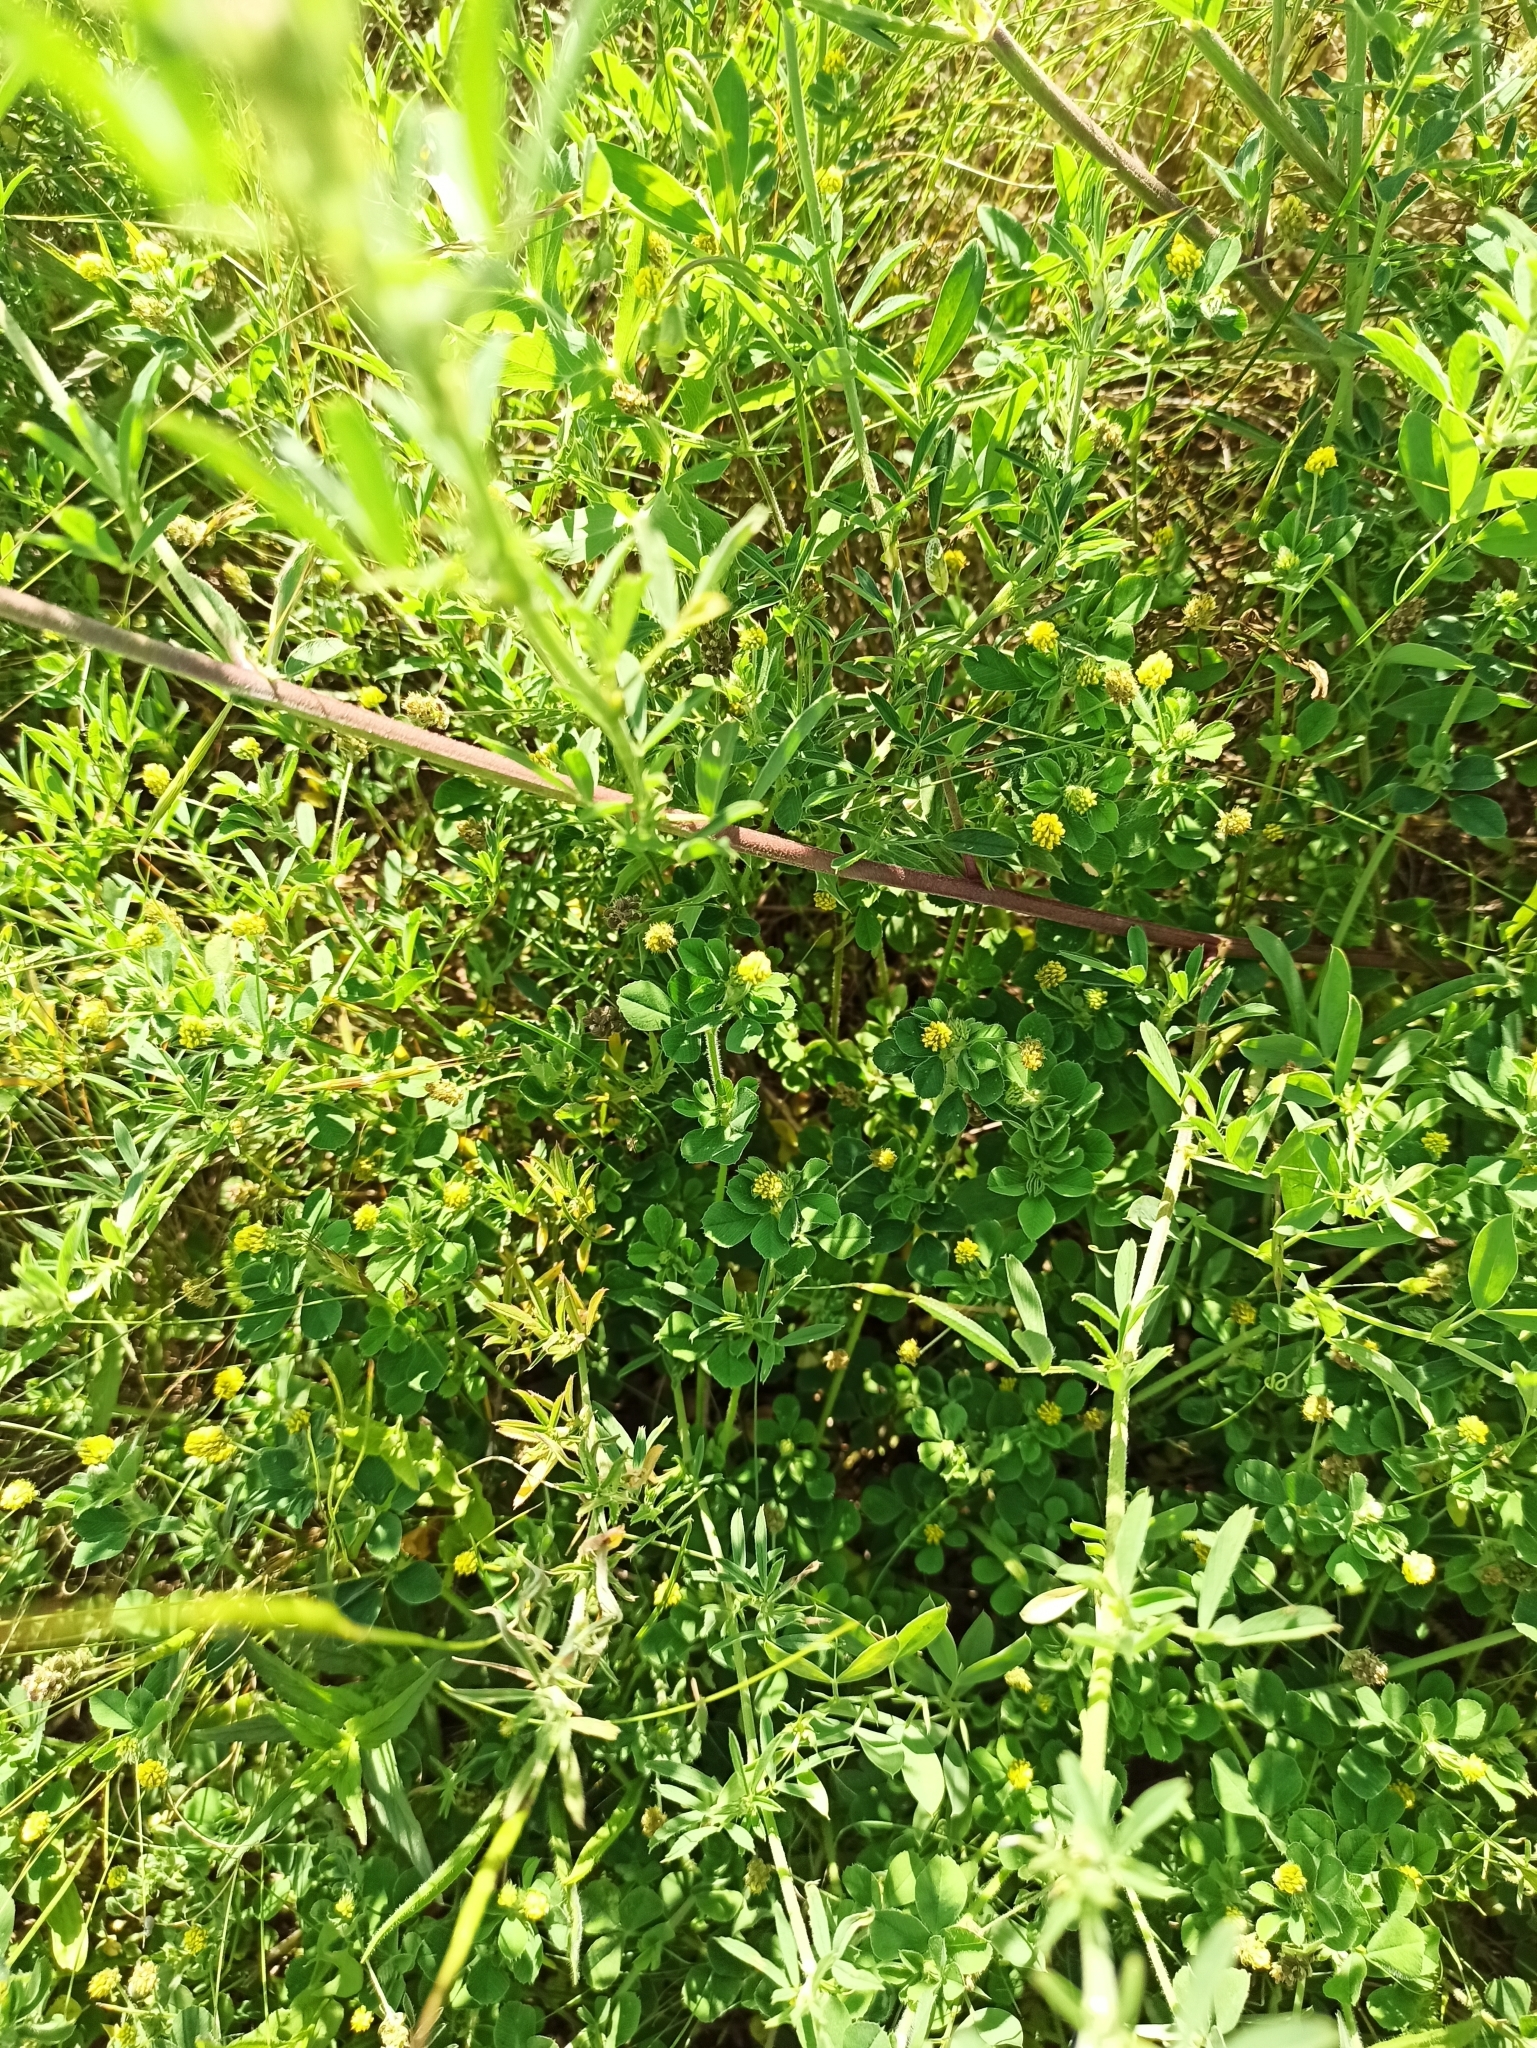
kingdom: Plantae
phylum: Tracheophyta
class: Magnoliopsida
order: Fabales
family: Fabaceae
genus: Medicago
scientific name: Medicago lupulina
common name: Black medick
